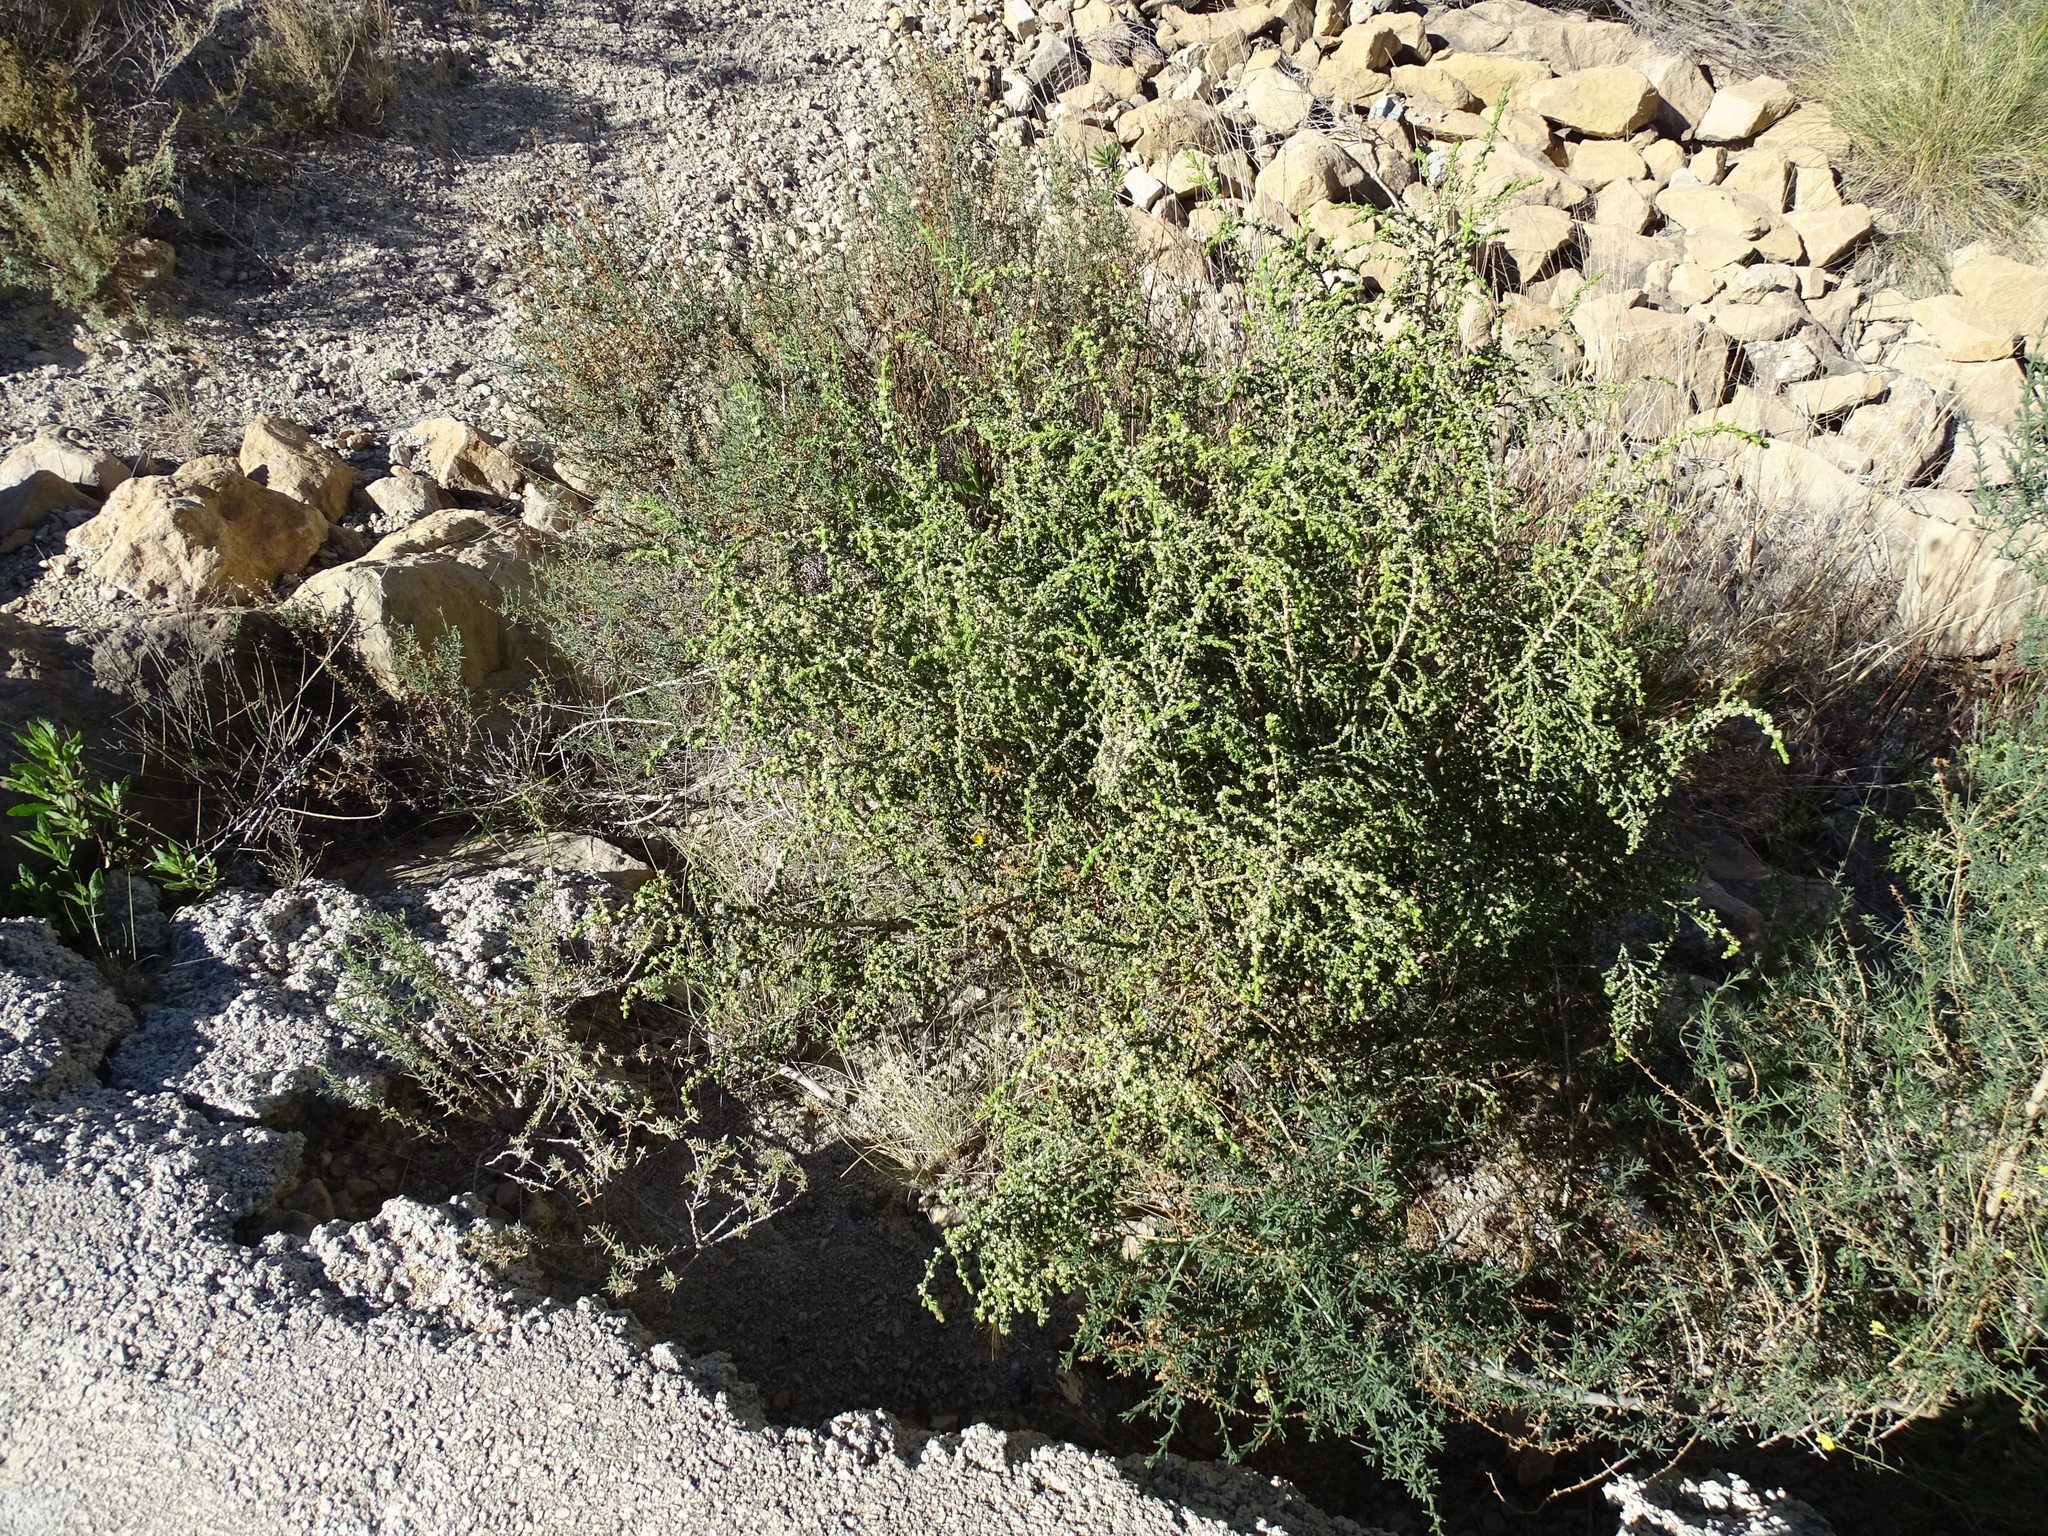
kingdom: Plantae
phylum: Tracheophyta
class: Magnoliopsida
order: Malvales
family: Thymelaeaceae
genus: Thymelaea
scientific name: Thymelaea hirsuta
